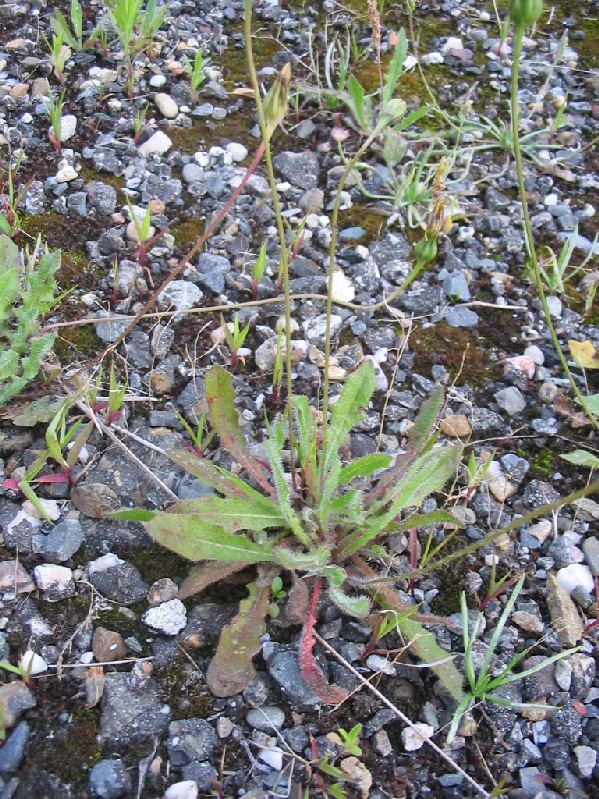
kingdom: Plantae
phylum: Tracheophyta
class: Magnoliopsida
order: Asterales
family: Asteraceae
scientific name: Asteraceae
